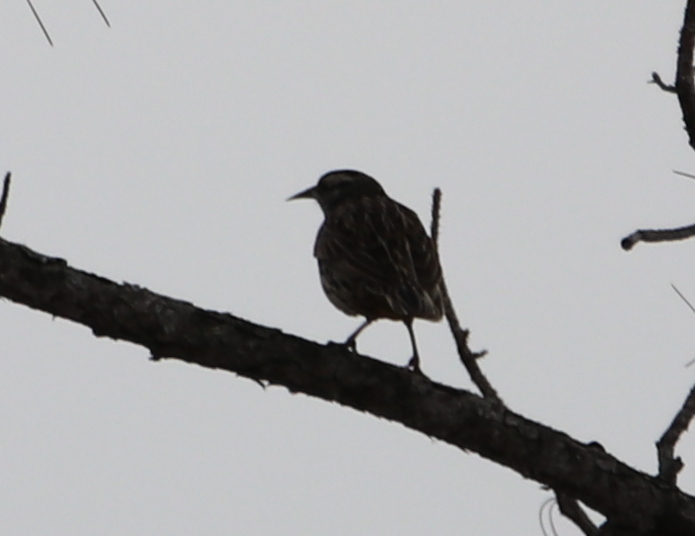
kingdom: Animalia
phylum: Chordata
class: Aves
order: Passeriformes
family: Icteridae
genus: Sturnella
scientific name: Sturnella magna
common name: Eastern meadowlark
